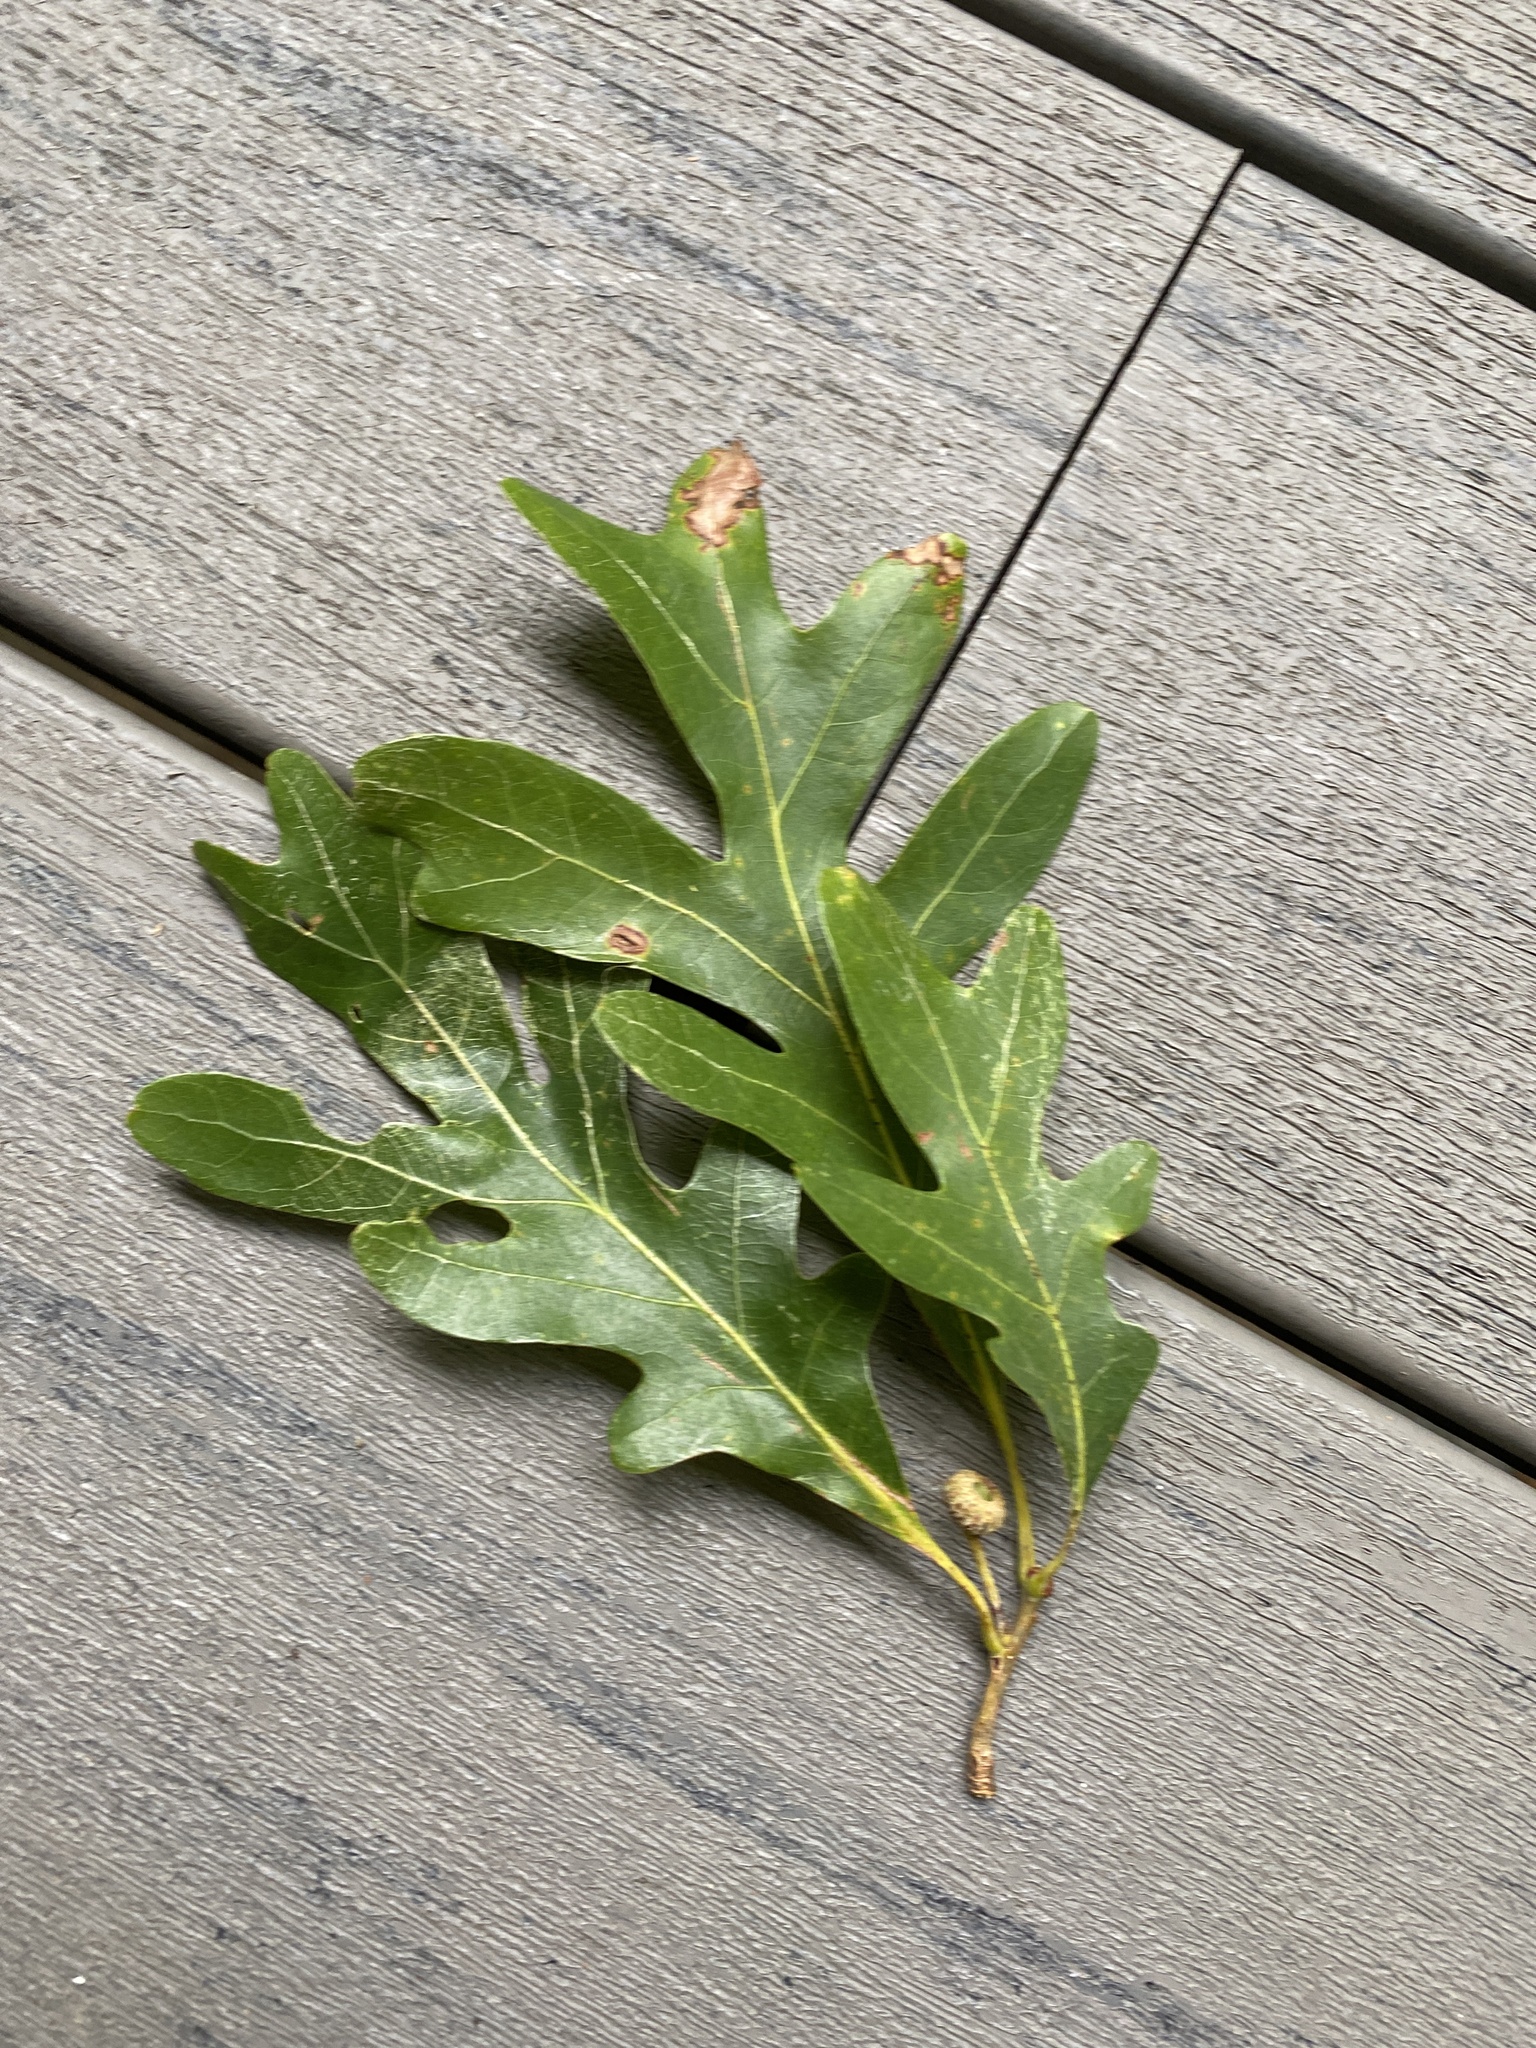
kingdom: Plantae
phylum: Tracheophyta
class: Magnoliopsida
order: Fagales
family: Fagaceae
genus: Quercus
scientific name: Quercus alba
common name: White oak
